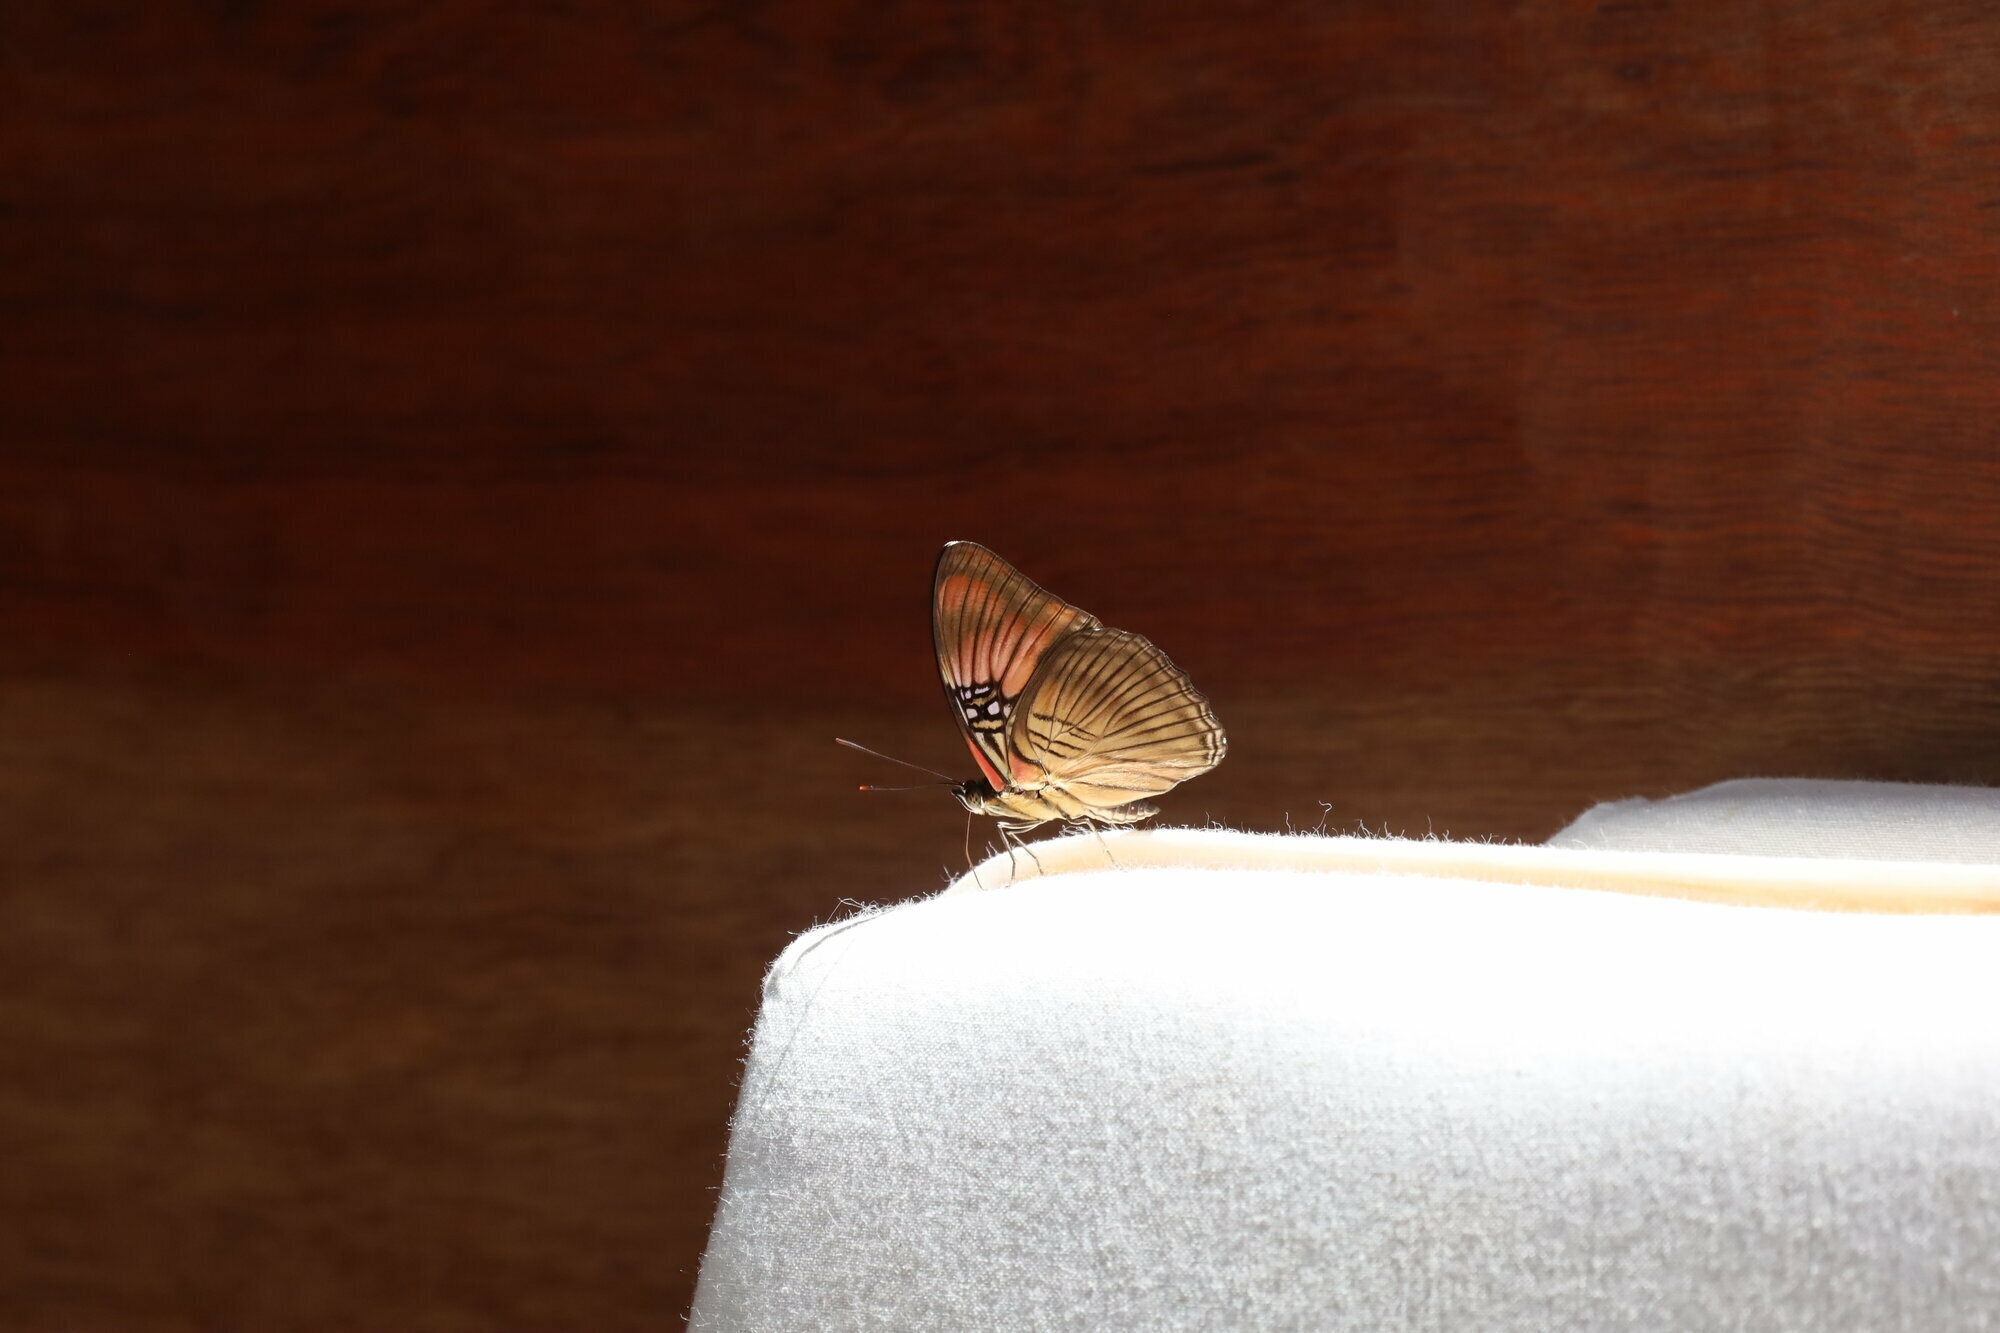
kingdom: Animalia
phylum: Arthropoda
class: Insecta
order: Lepidoptera
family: Nymphalidae
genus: Limenitis
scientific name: Limenitis mesentina
